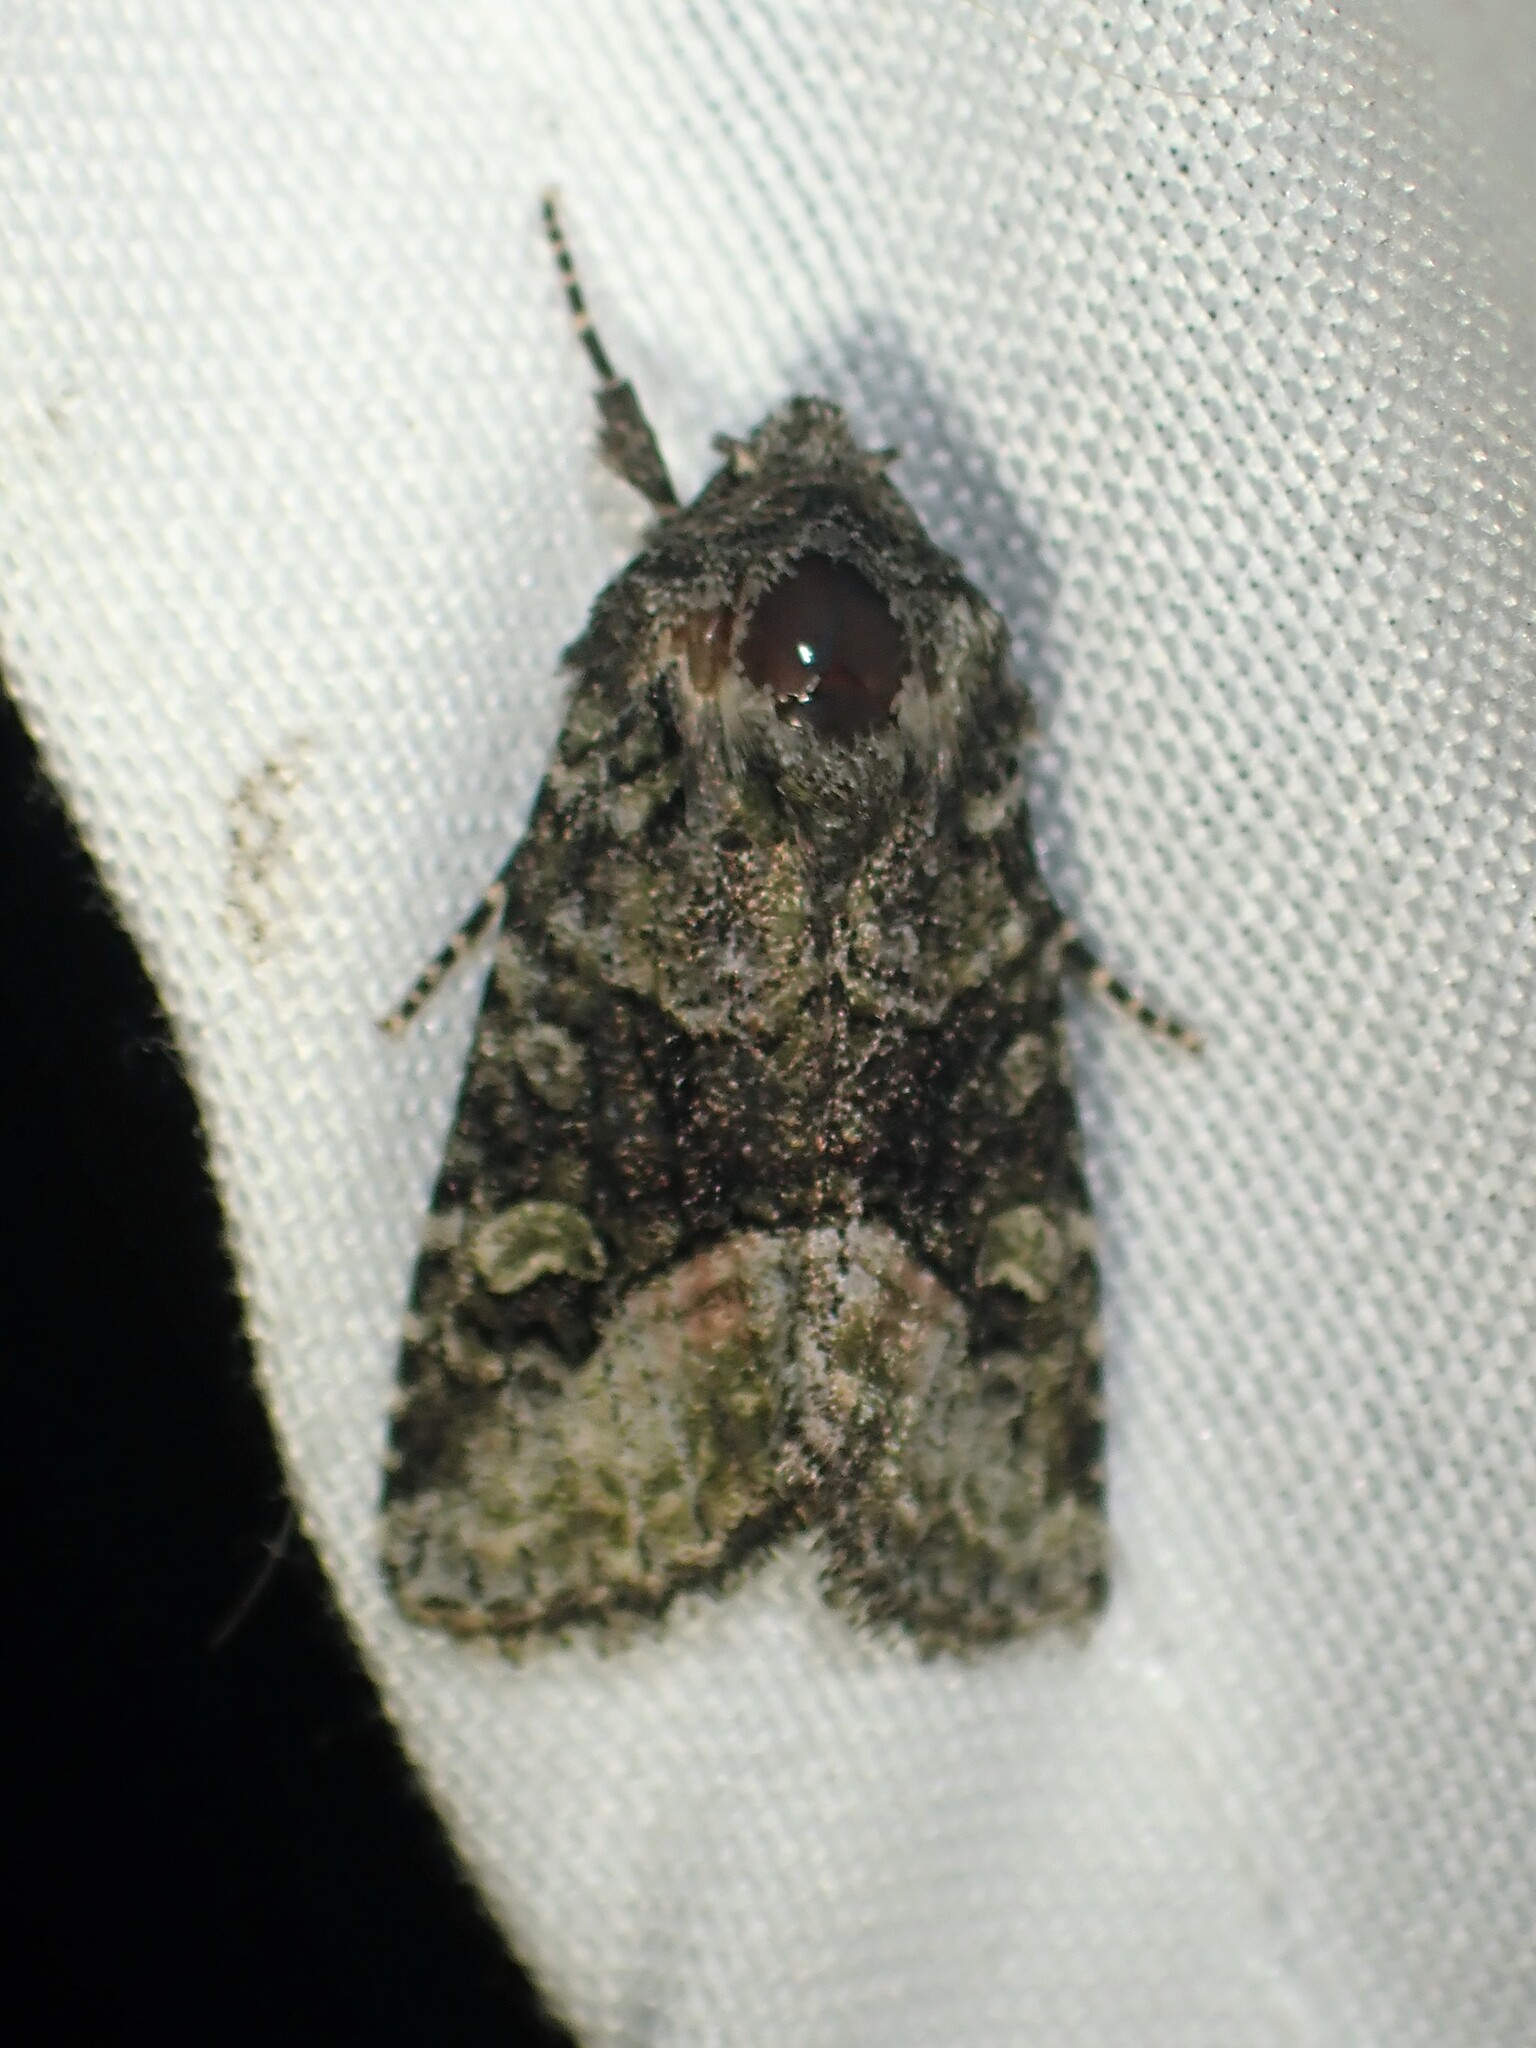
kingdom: Animalia
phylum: Arthropoda
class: Insecta
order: Lepidoptera
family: Noctuidae
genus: Lacinipolia
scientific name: Lacinipolia olivacea
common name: Olive arches moth
